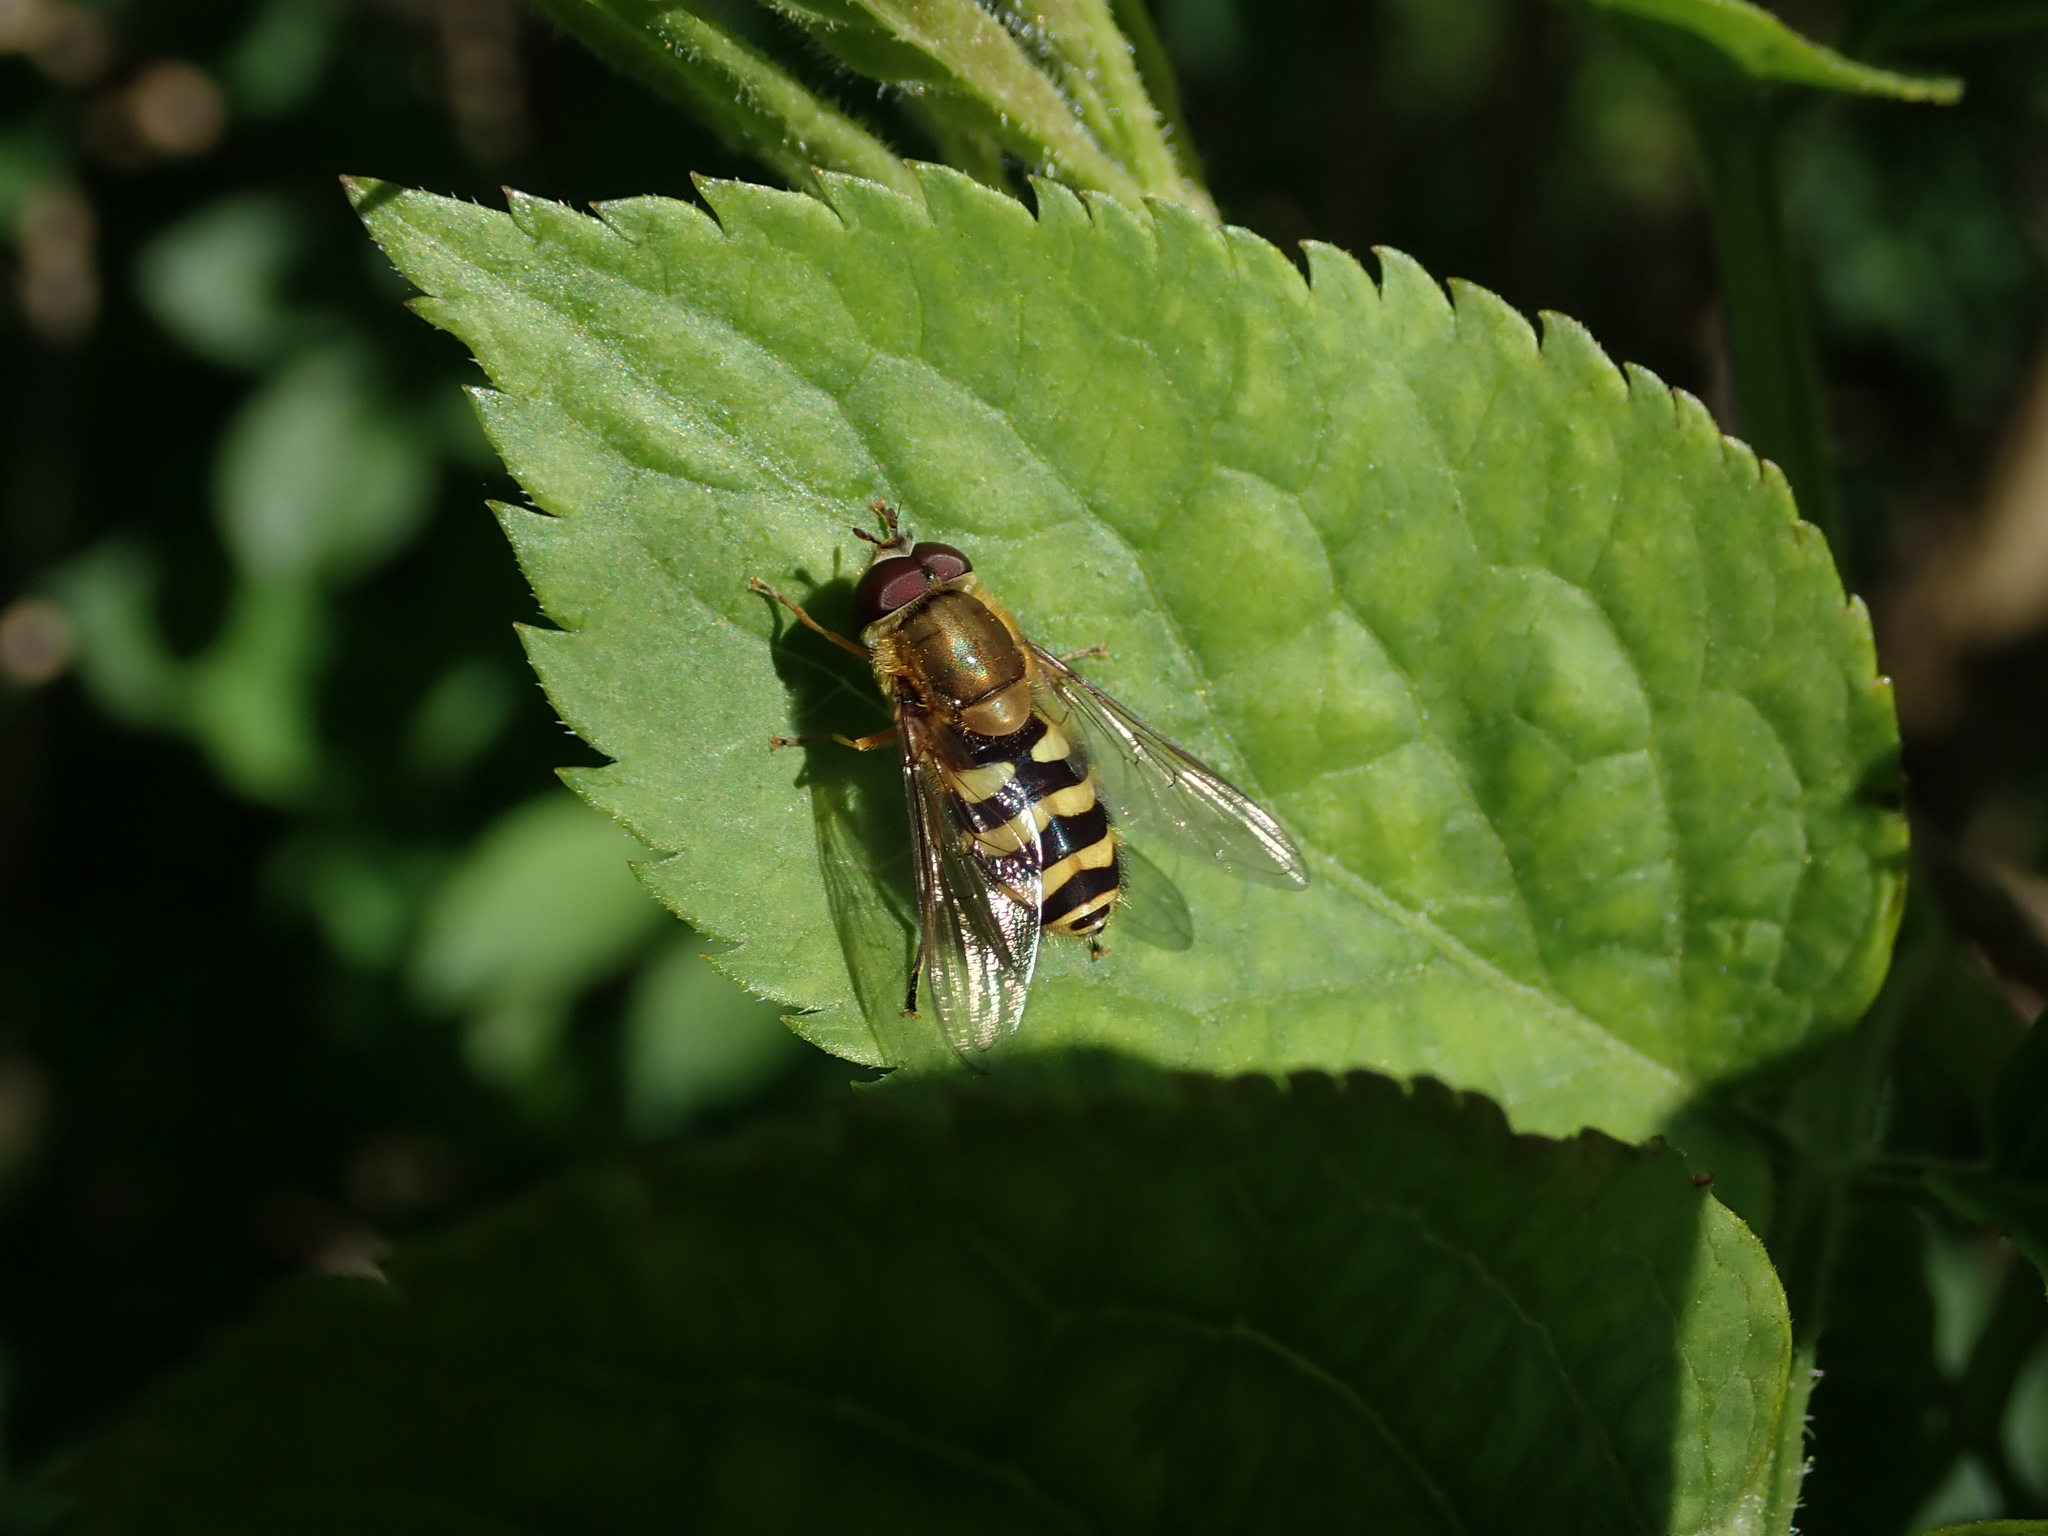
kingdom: Animalia
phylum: Arthropoda
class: Insecta
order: Diptera
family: Syrphidae
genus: Syrphus
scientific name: Syrphus
